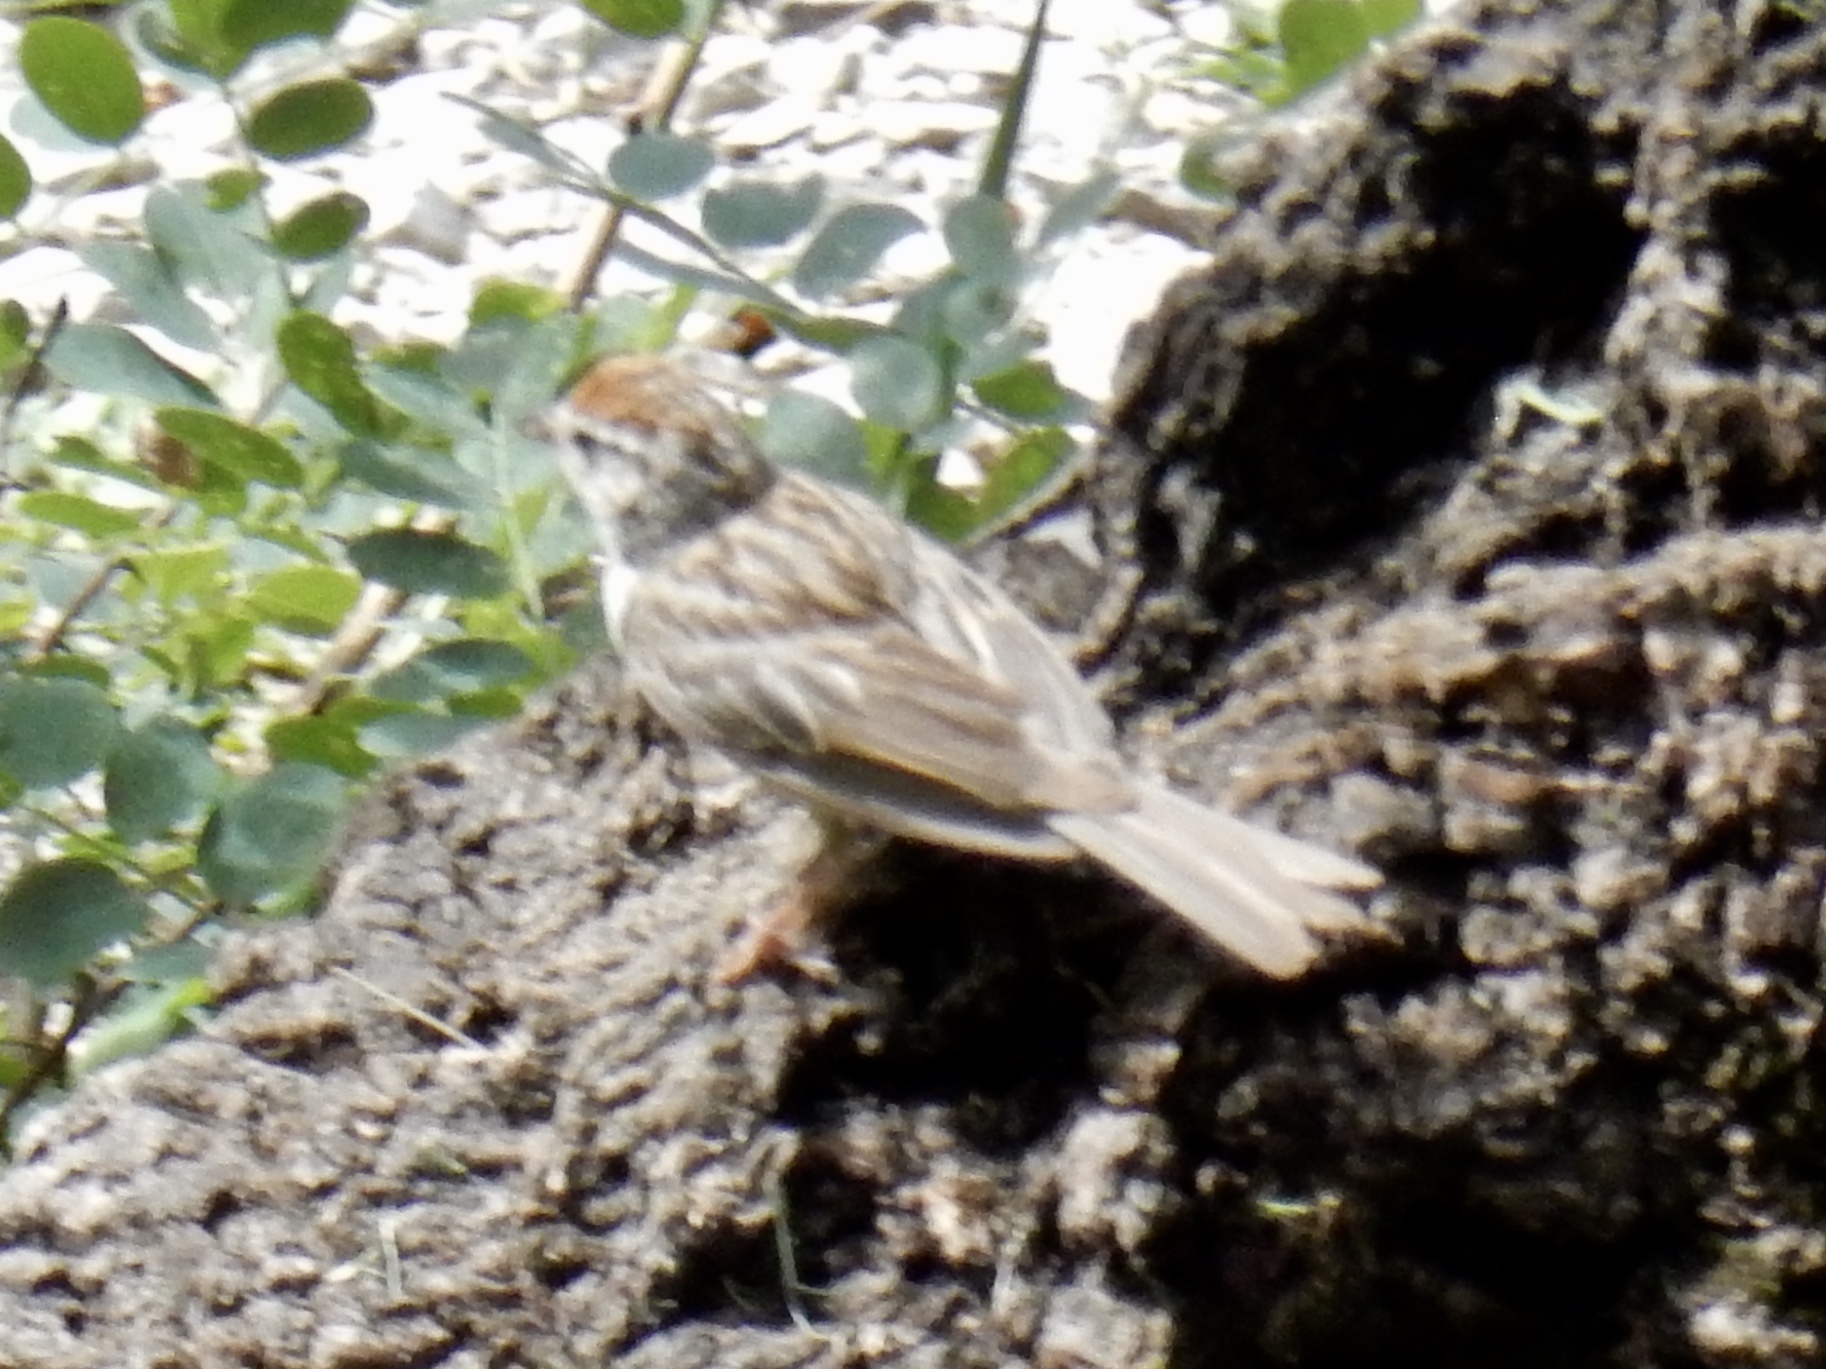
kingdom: Animalia
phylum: Chordata
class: Aves
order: Passeriformes
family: Passerellidae
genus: Spizella
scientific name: Spizella passerina
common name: Chipping sparrow
